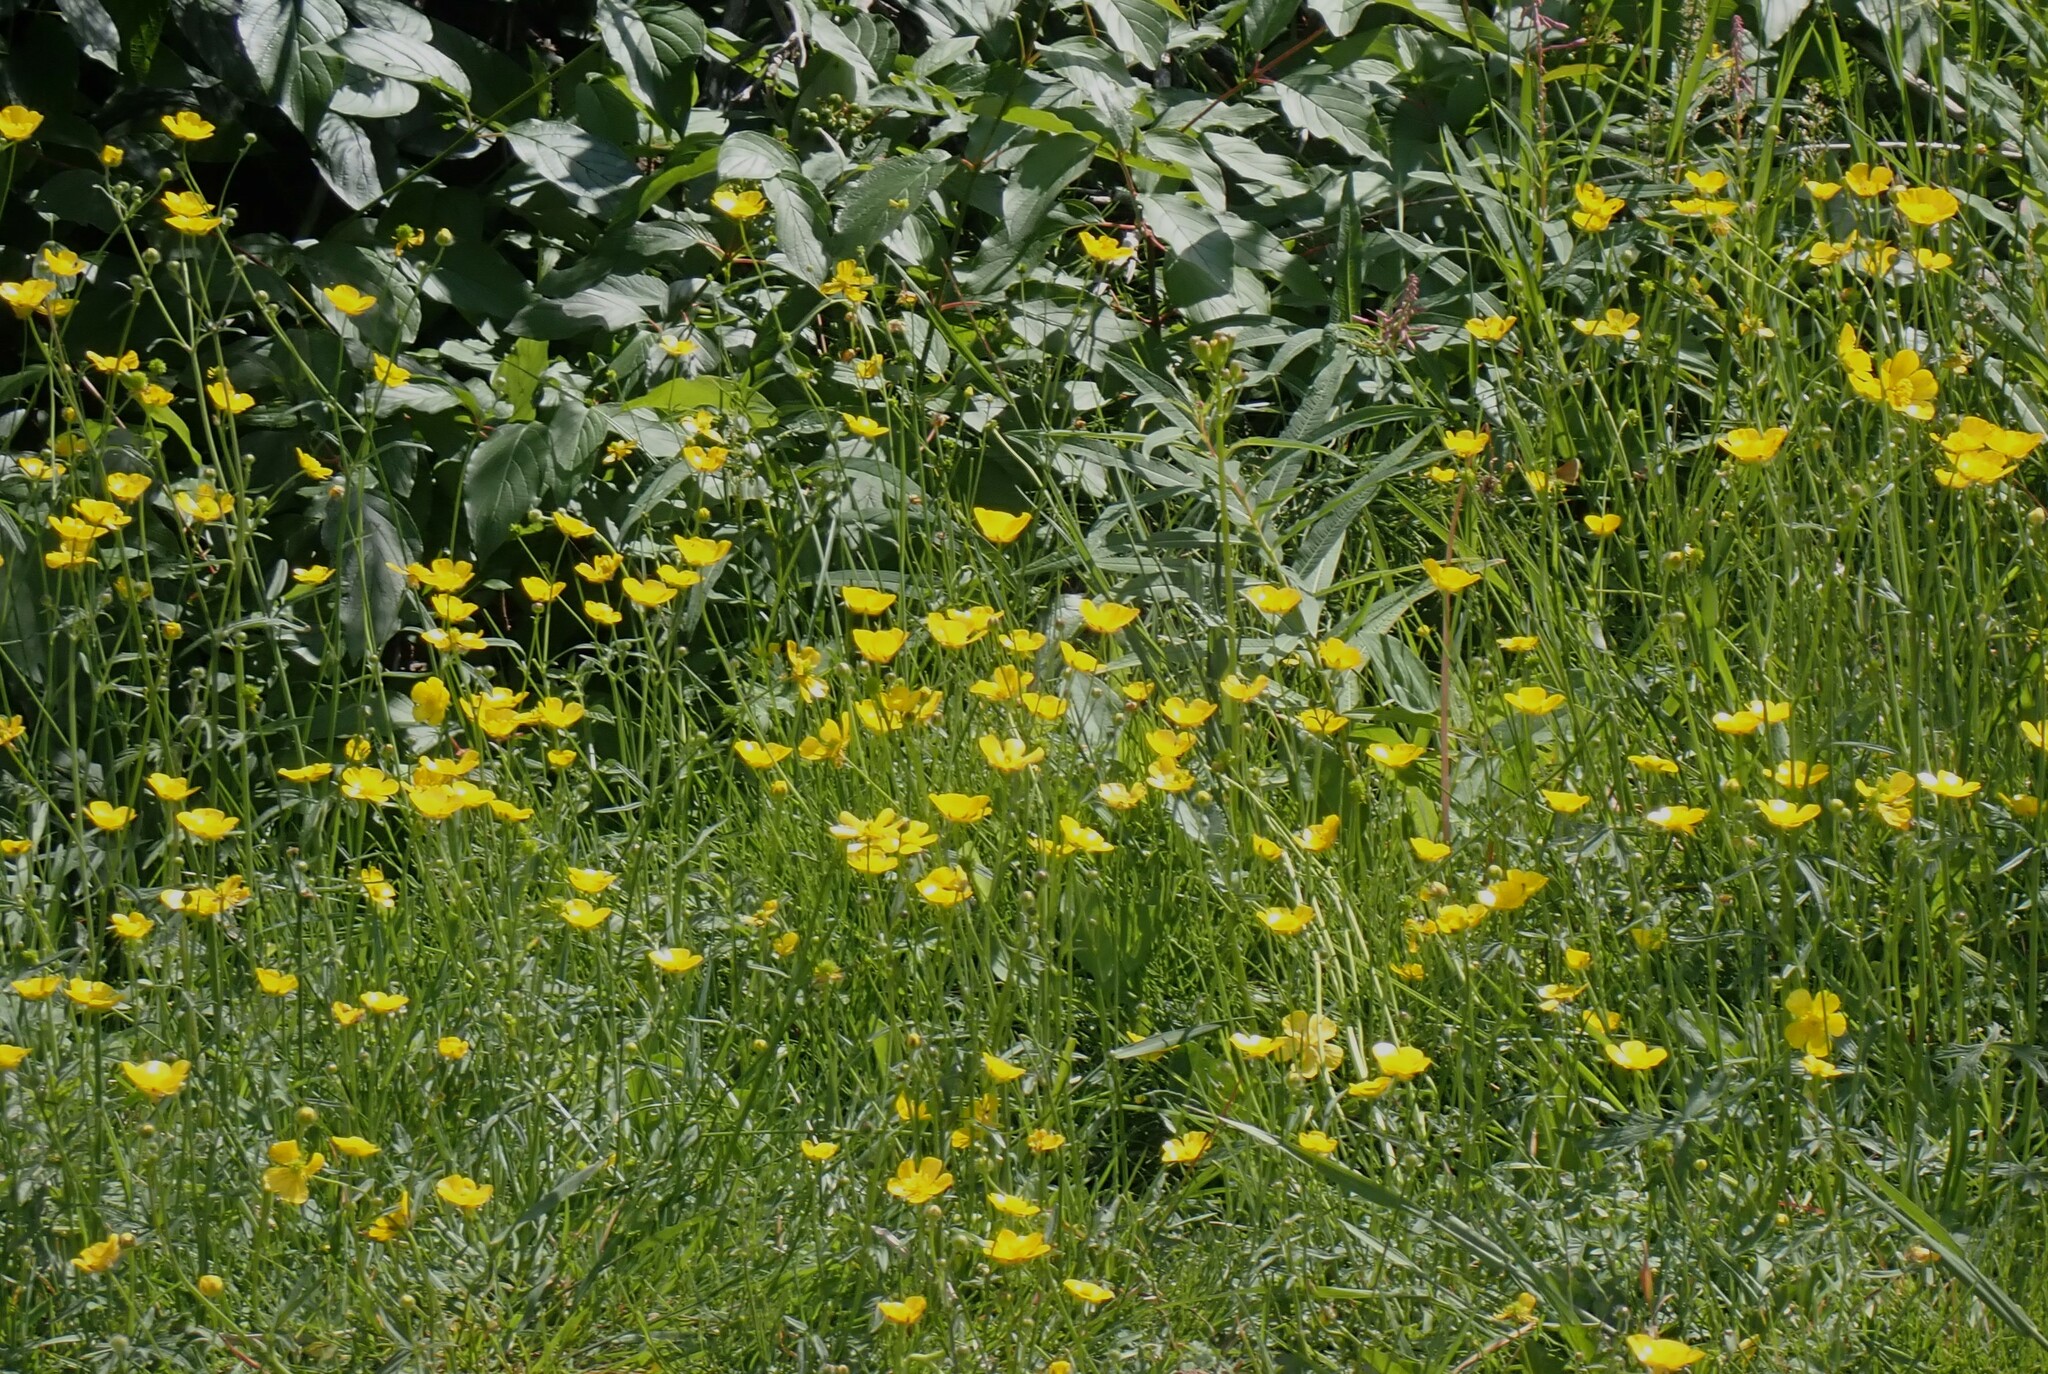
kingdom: Plantae
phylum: Tracheophyta
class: Magnoliopsida
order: Ranunculales
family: Ranunculaceae
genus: Ranunculus
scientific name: Ranunculus acris
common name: Meadow buttercup
